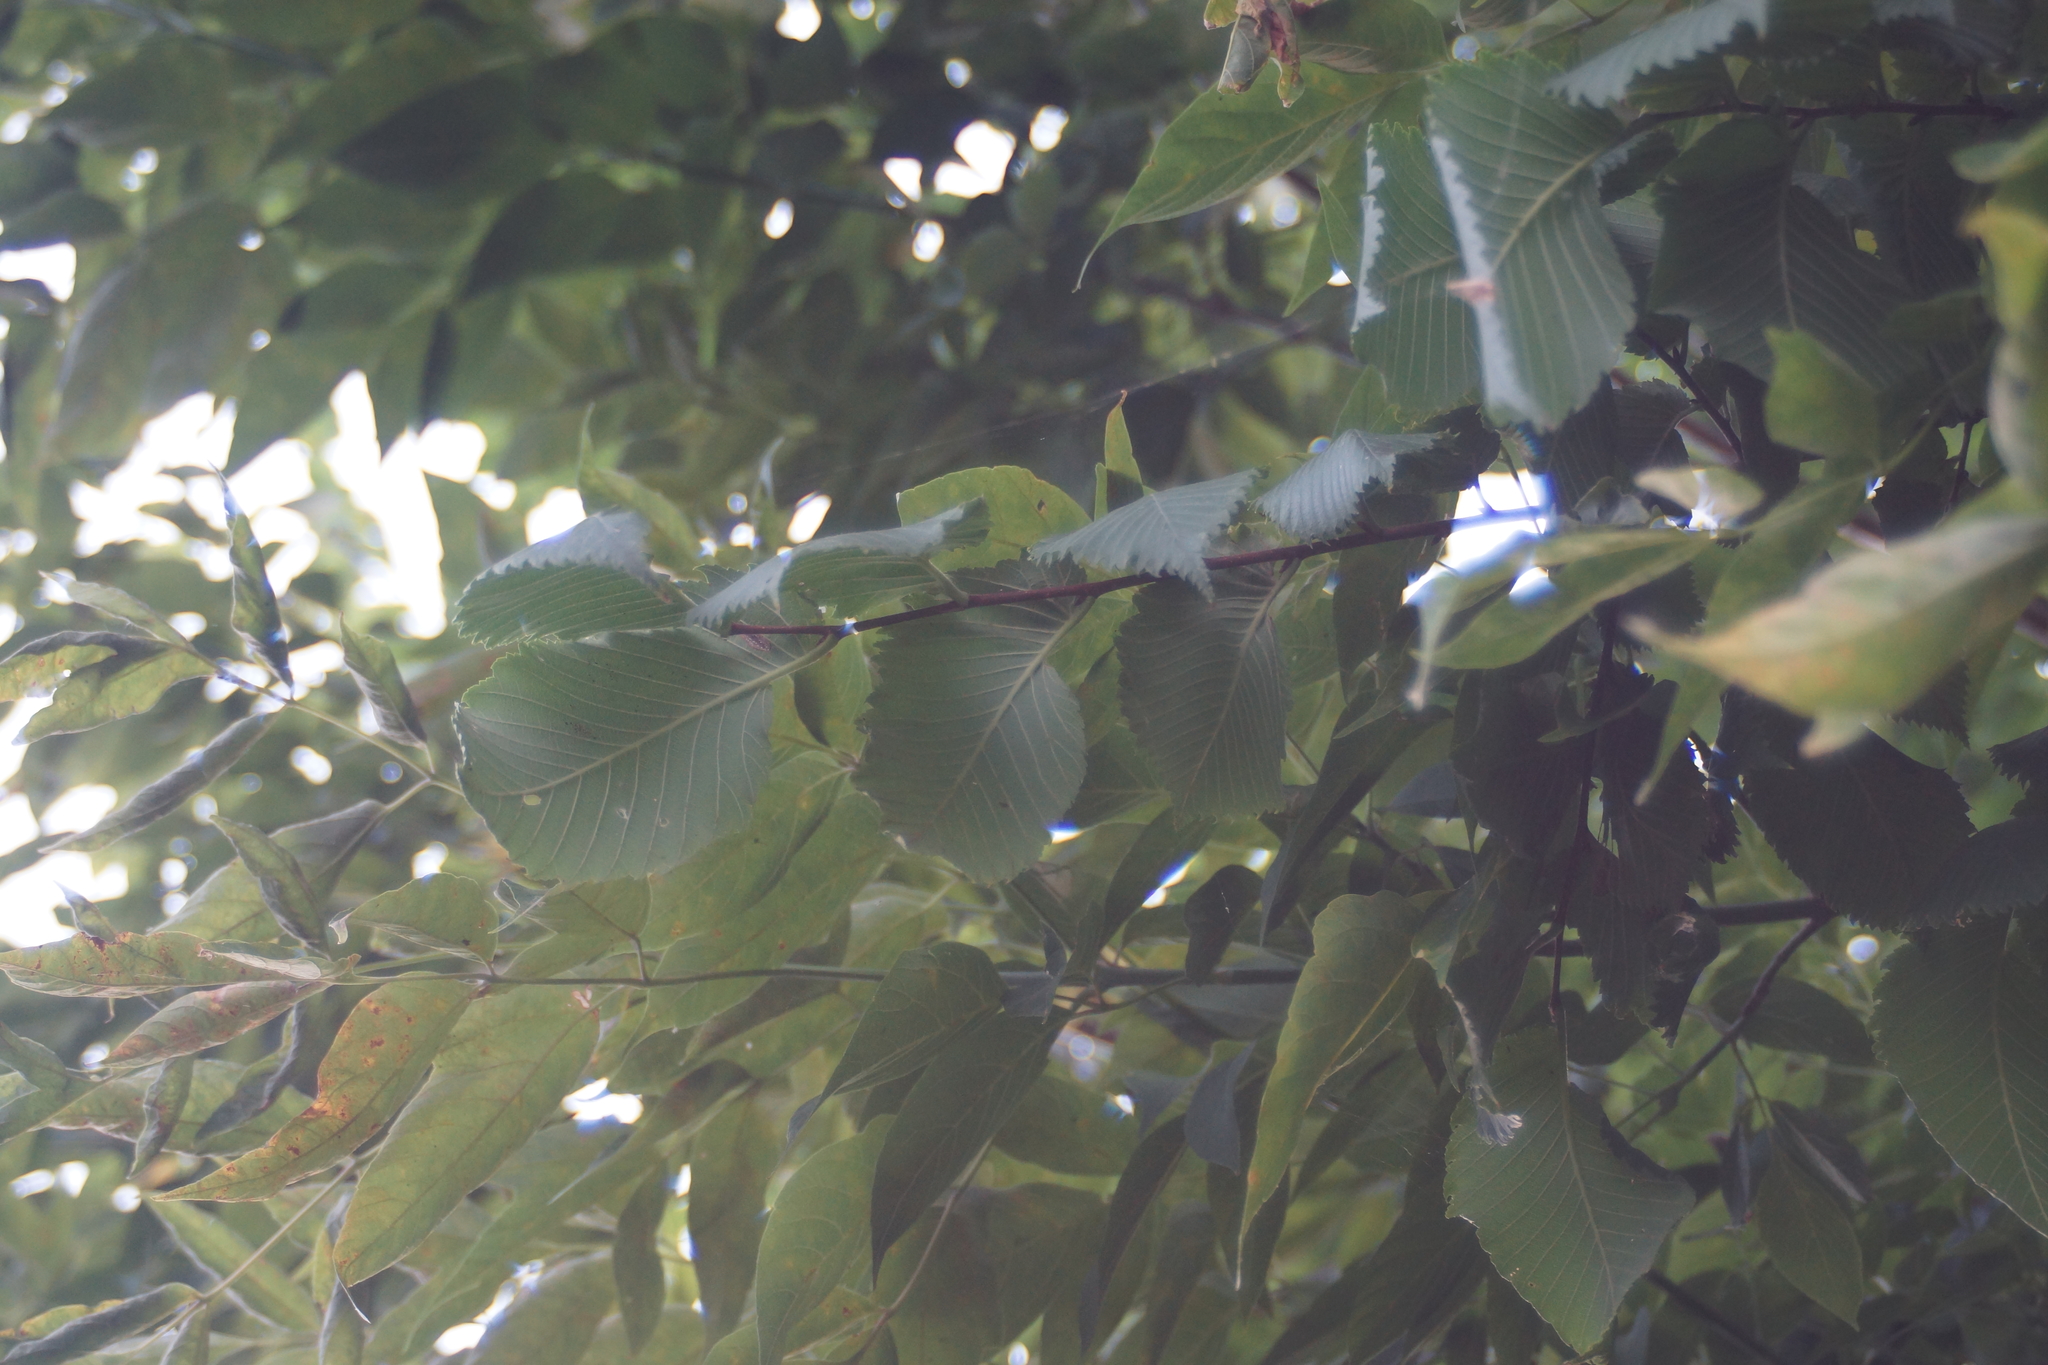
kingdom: Plantae
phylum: Tracheophyta
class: Magnoliopsida
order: Rosales
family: Ulmaceae
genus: Ulmus
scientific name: Ulmus laevis
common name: European white-elm
